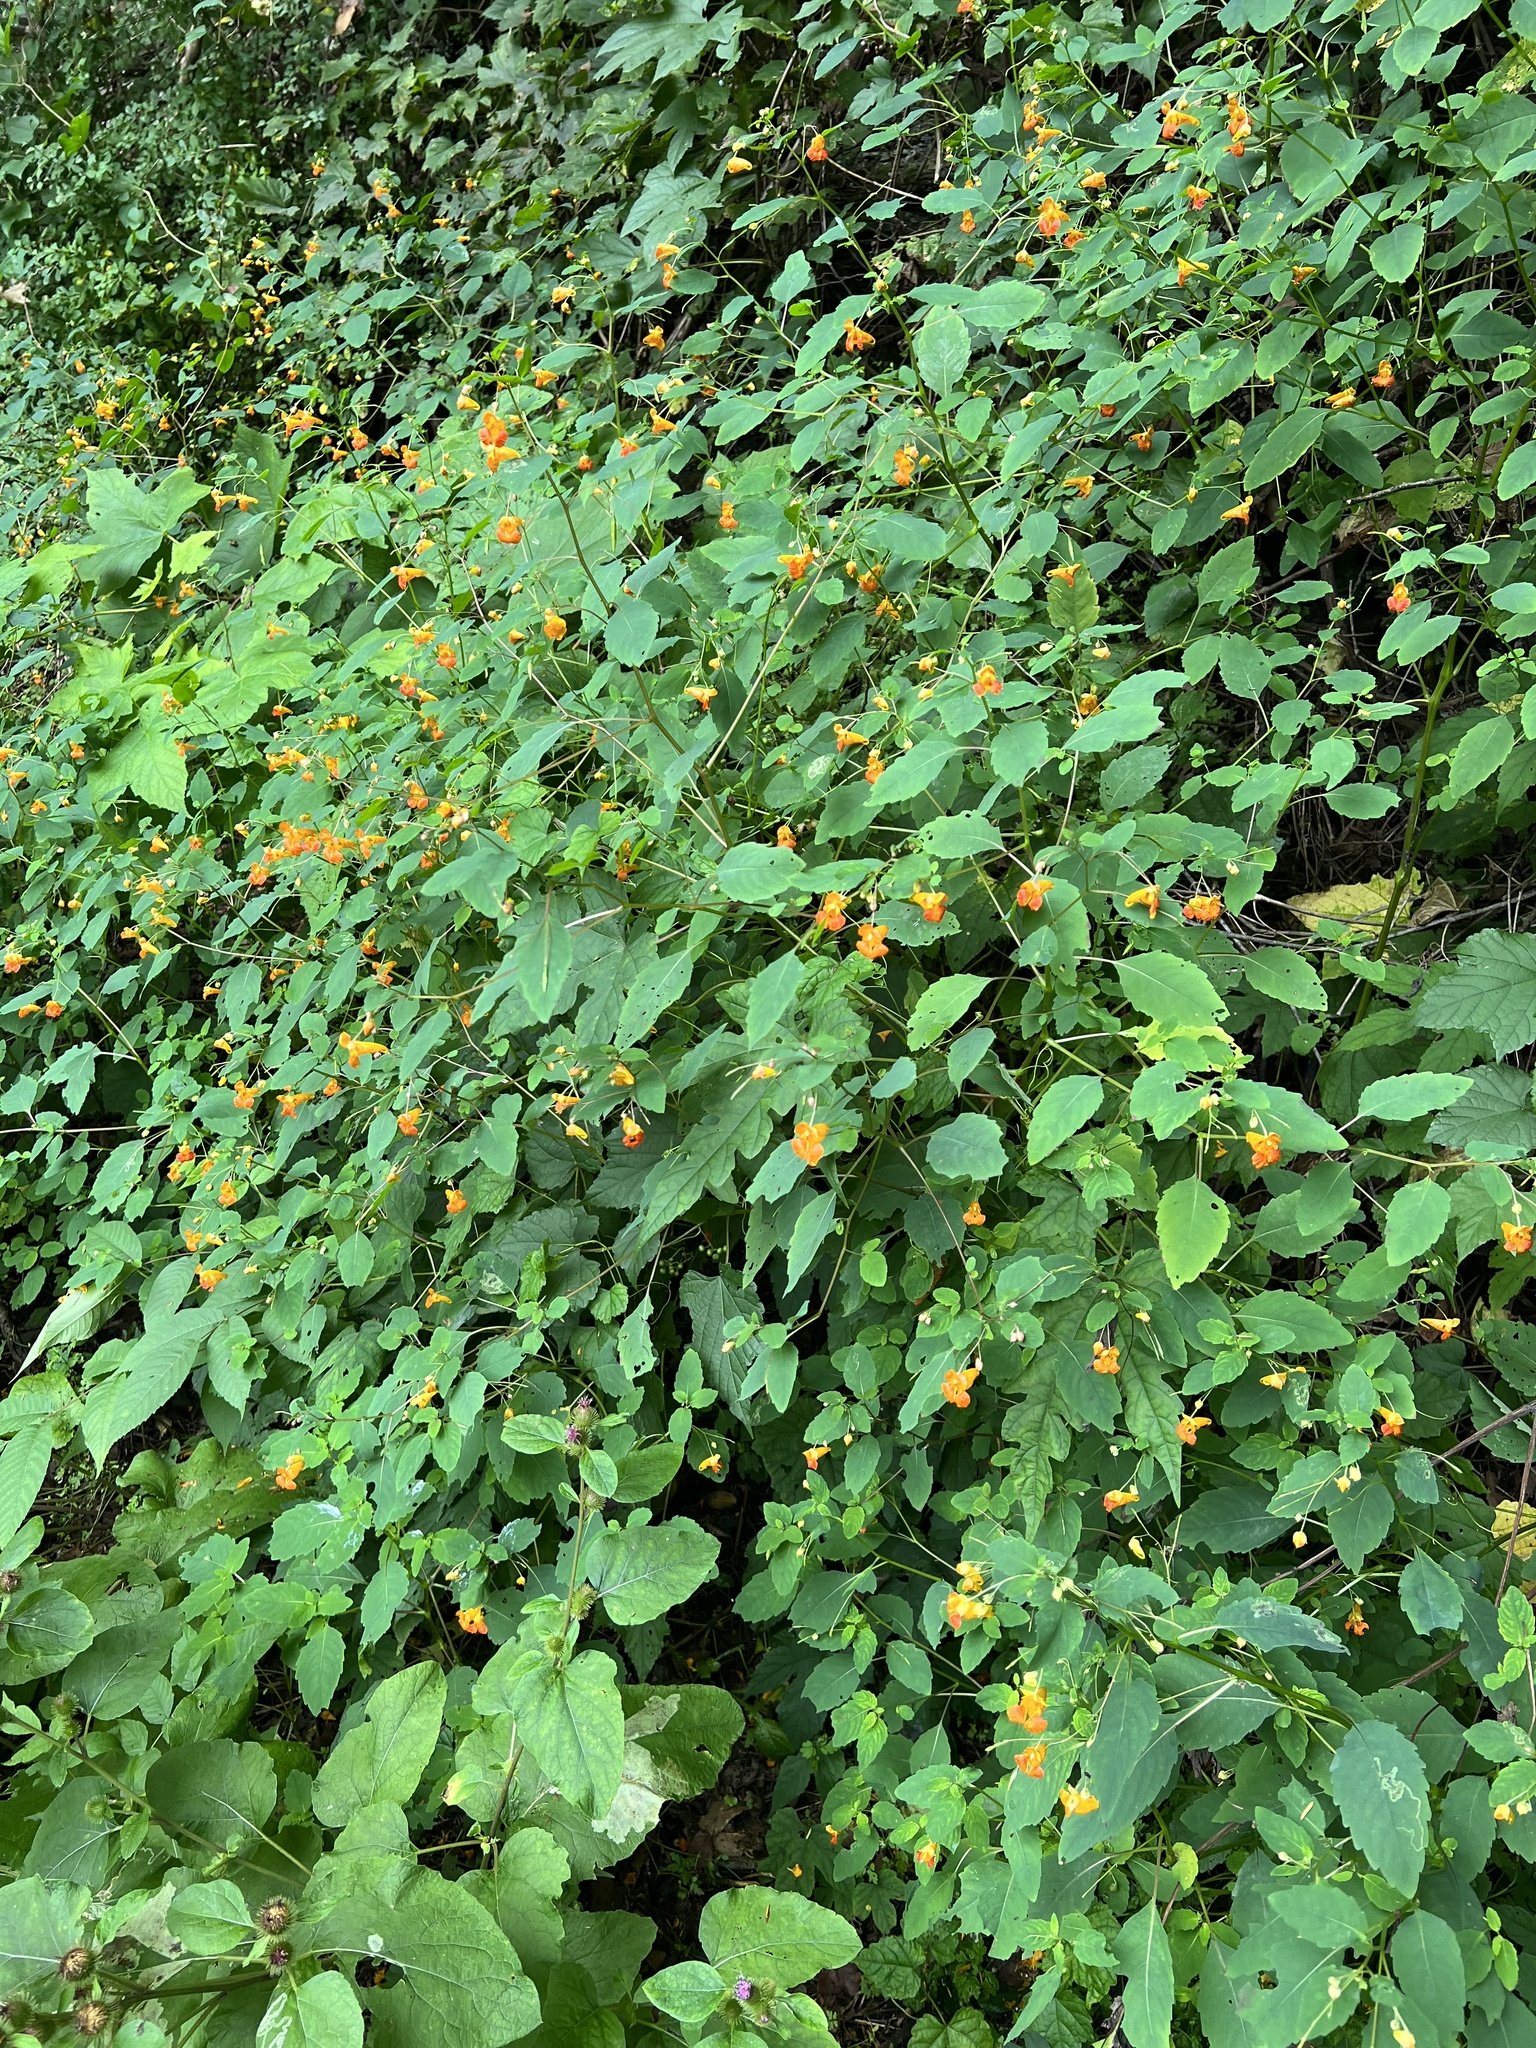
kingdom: Plantae
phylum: Tracheophyta
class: Magnoliopsida
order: Ericales
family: Balsaminaceae
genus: Impatiens
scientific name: Impatiens capensis
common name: Orange balsam
